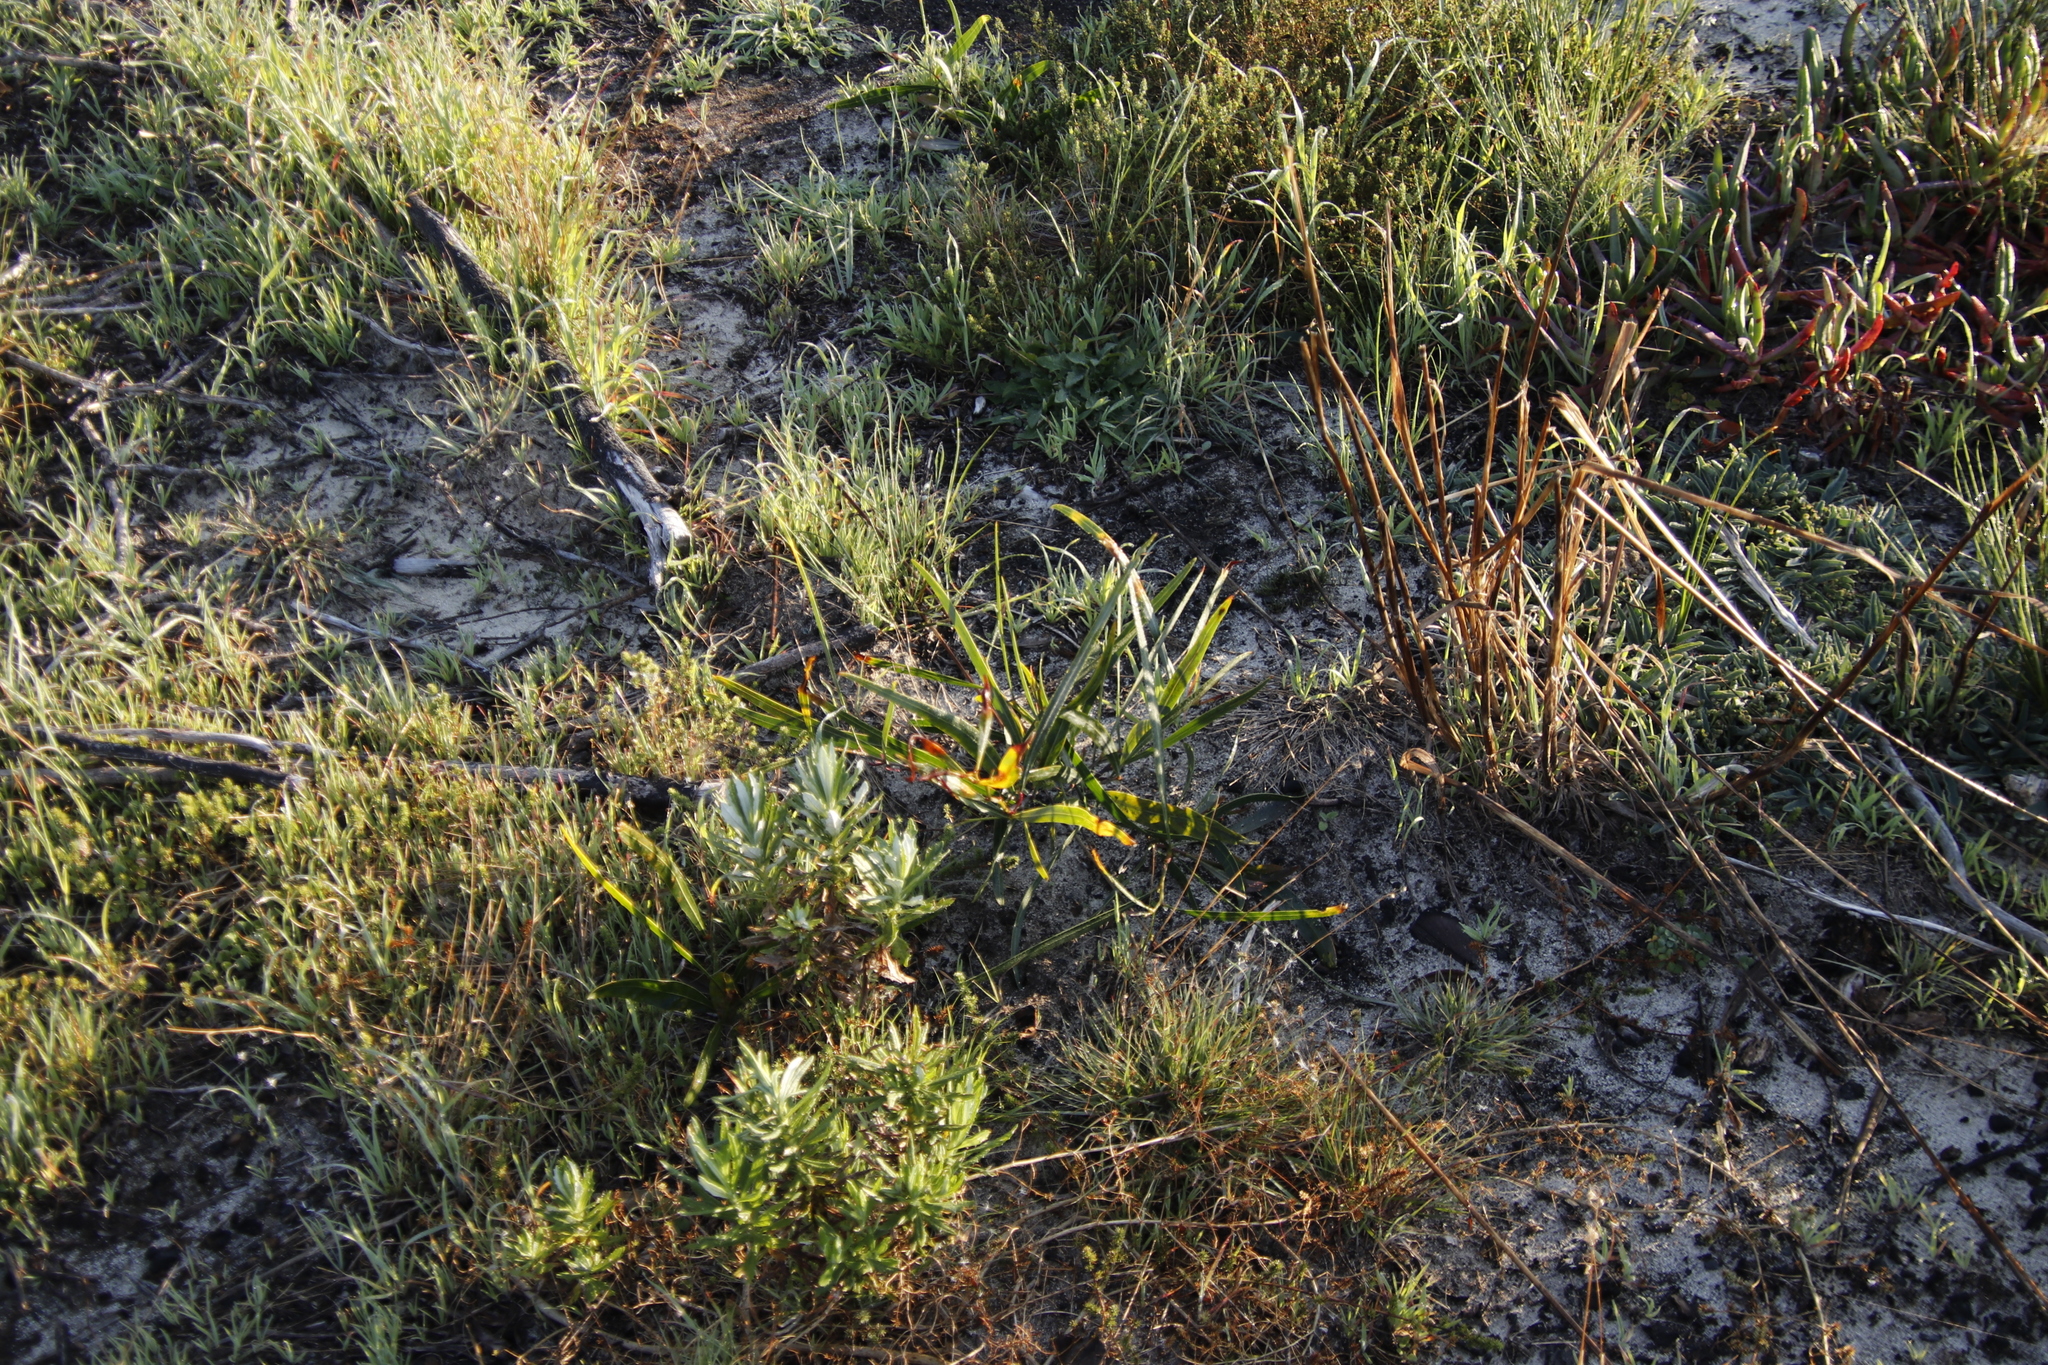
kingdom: Plantae
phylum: Tracheophyta
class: Magnoliopsida
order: Fabales
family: Fabaceae
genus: Acacia
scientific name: Acacia saligna
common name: Orange wattle
